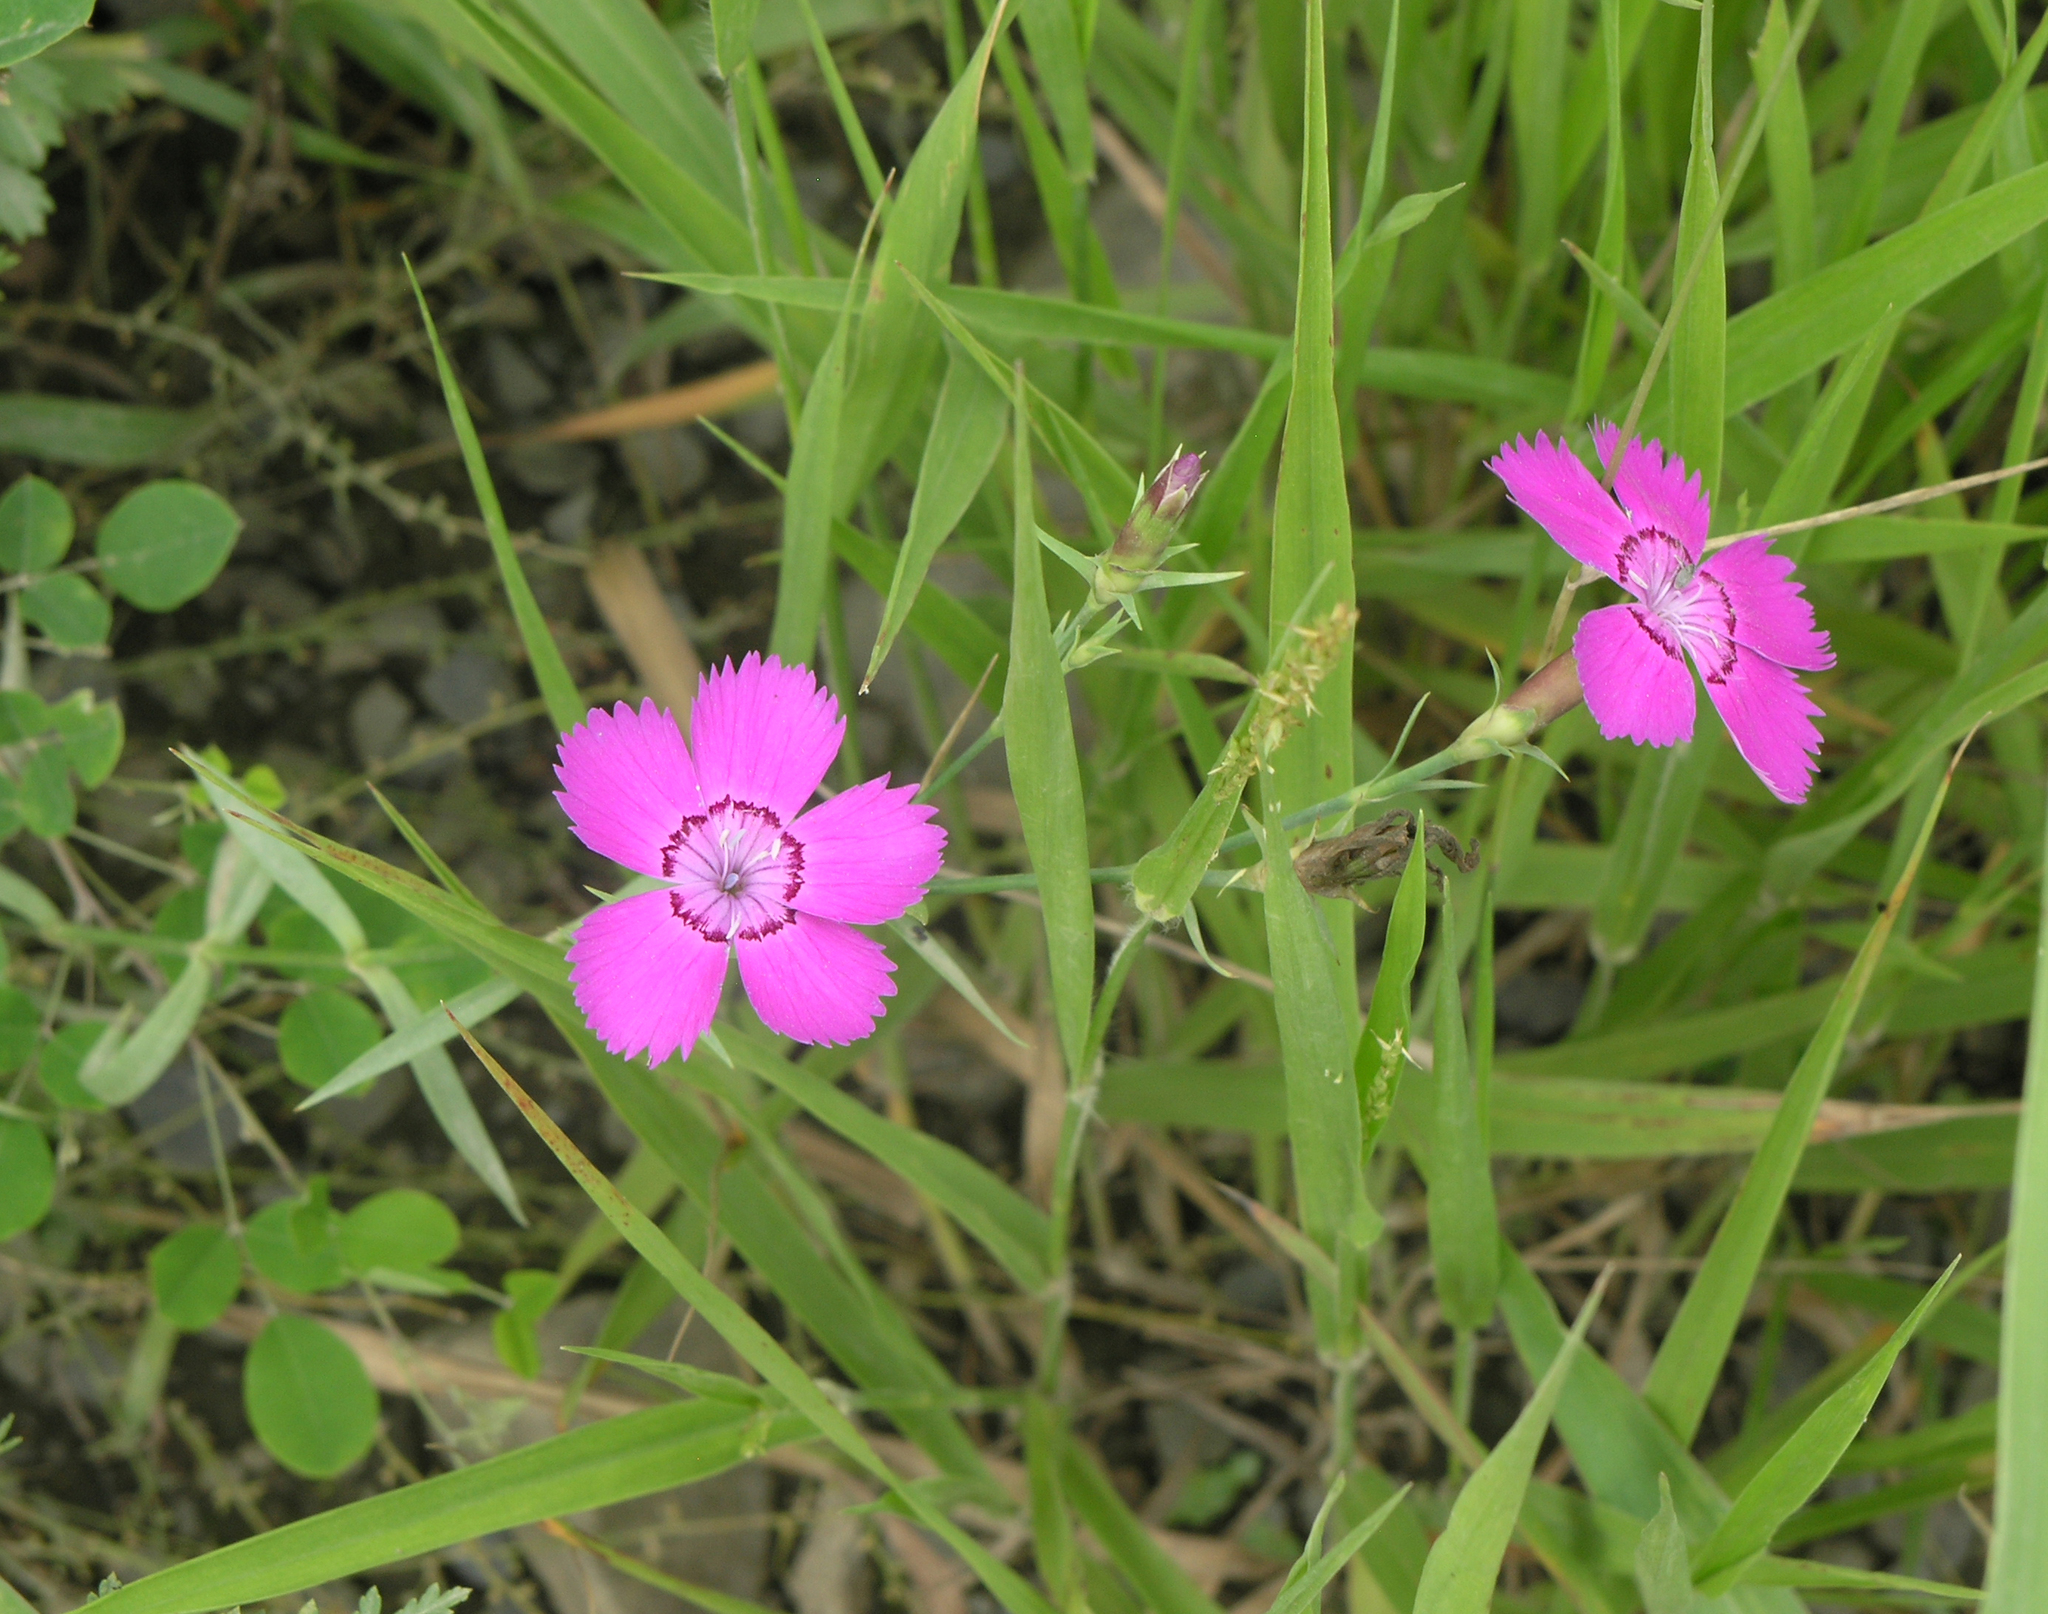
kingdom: Plantae
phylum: Tracheophyta
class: Magnoliopsida
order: Caryophyllales
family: Caryophyllaceae
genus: Dianthus
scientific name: Dianthus chinensis
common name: Rainbow pink
